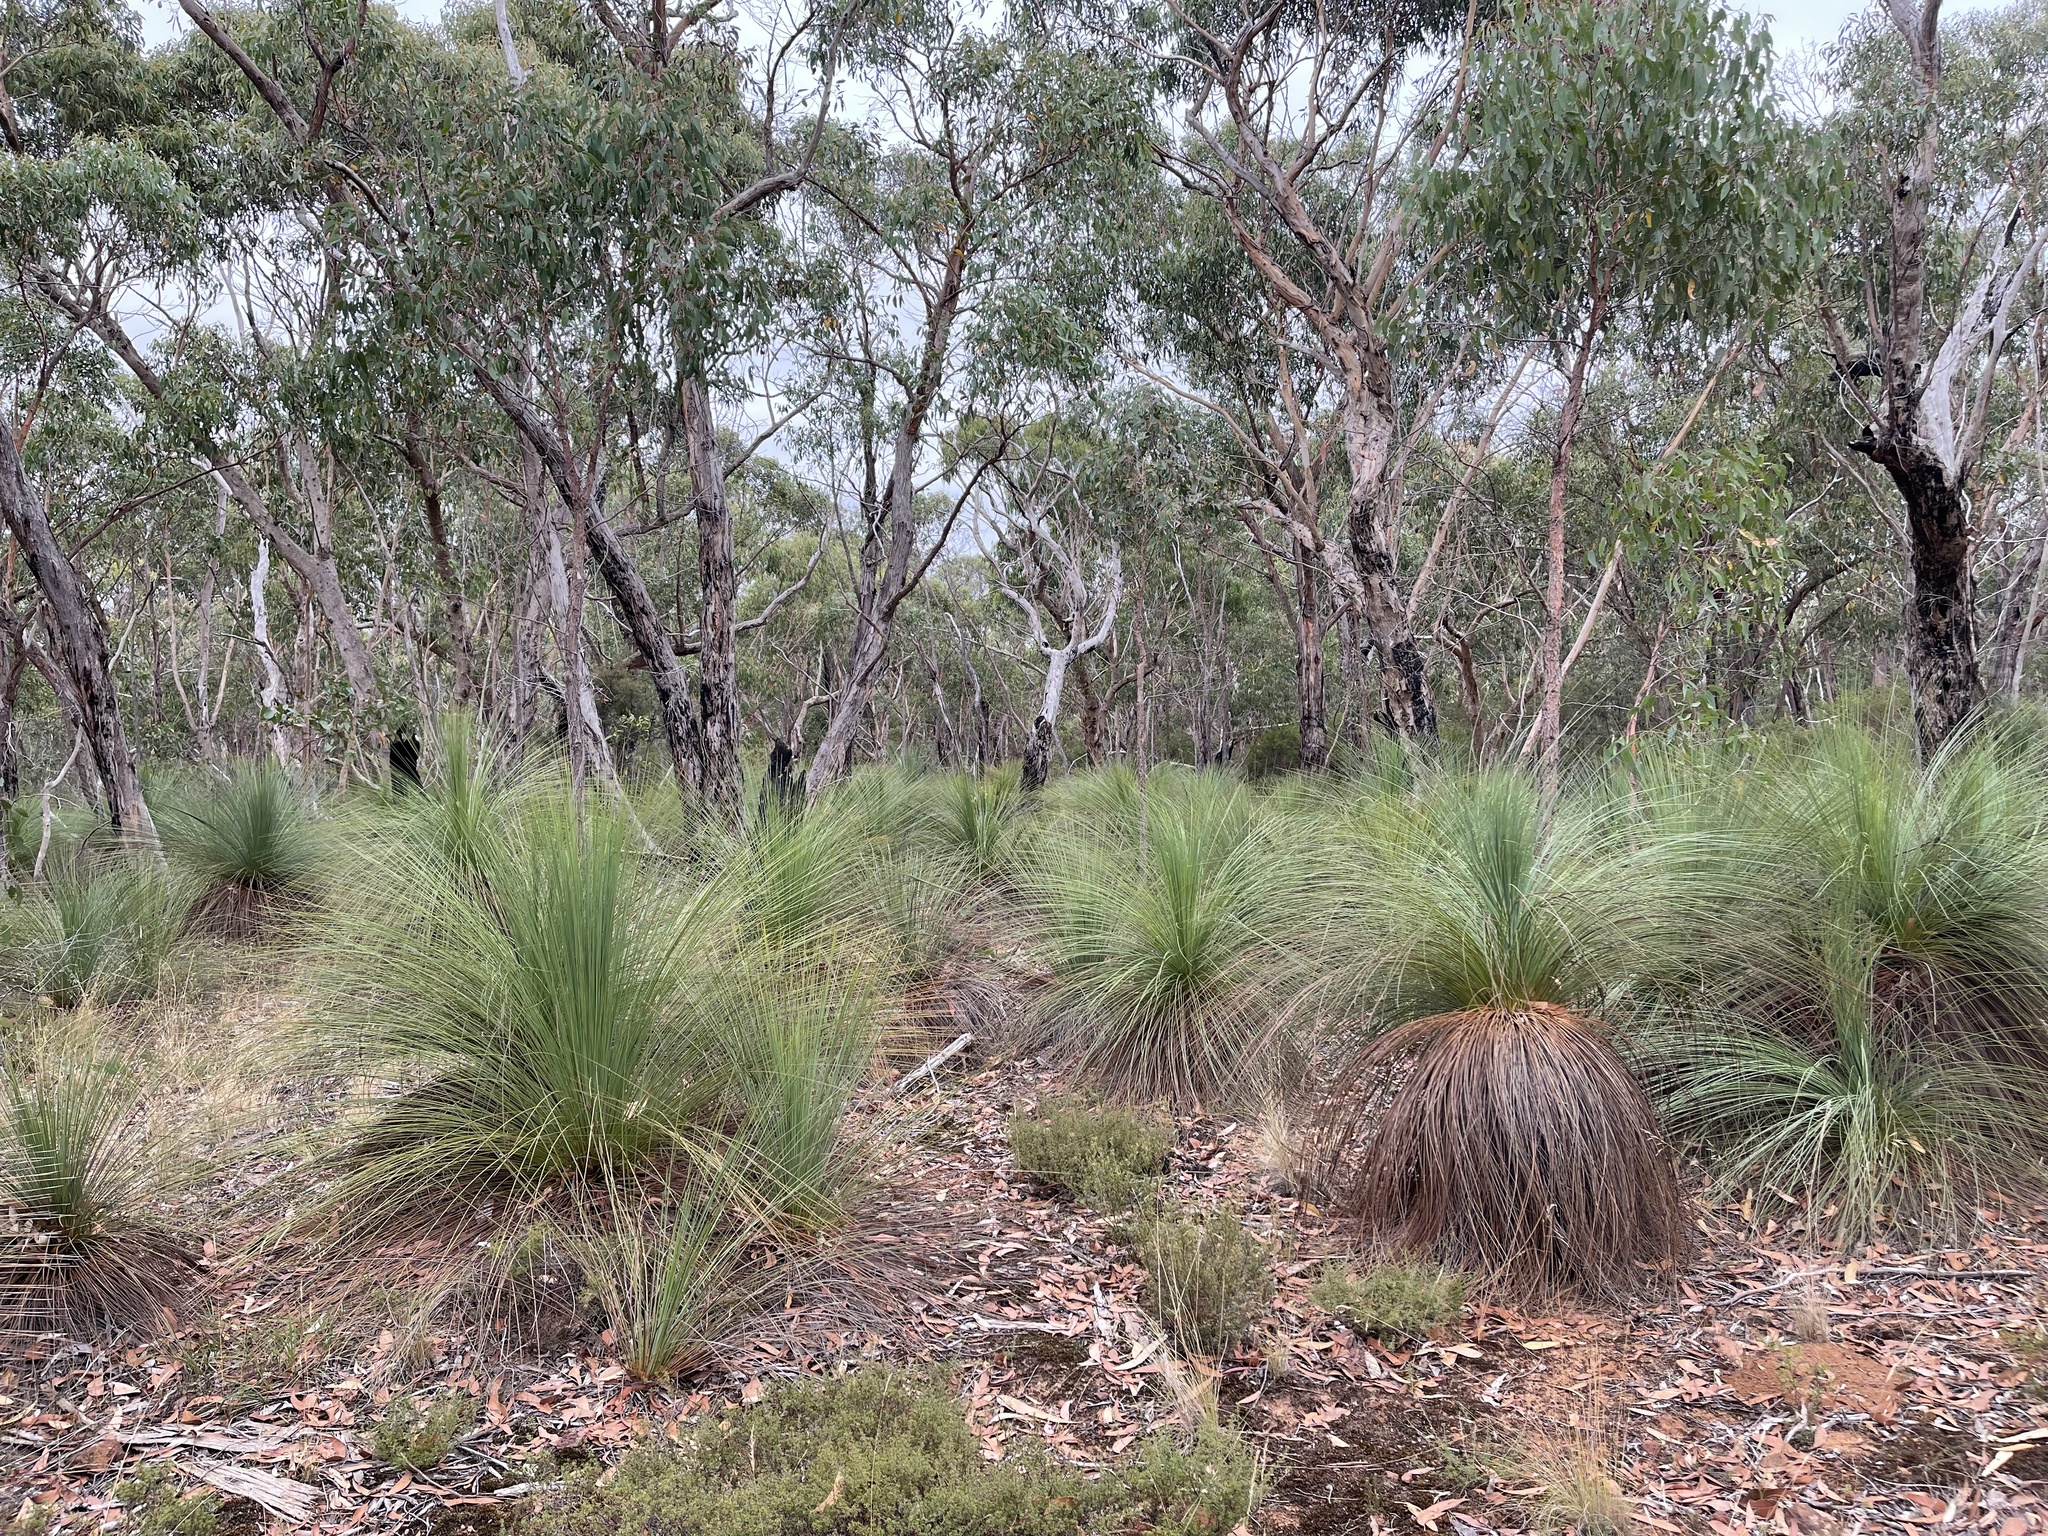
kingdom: Plantae
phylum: Tracheophyta
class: Liliopsida
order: Asparagales
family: Asphodelaceae
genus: Xanthorrhoea
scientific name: Xanthorrhoea australis
